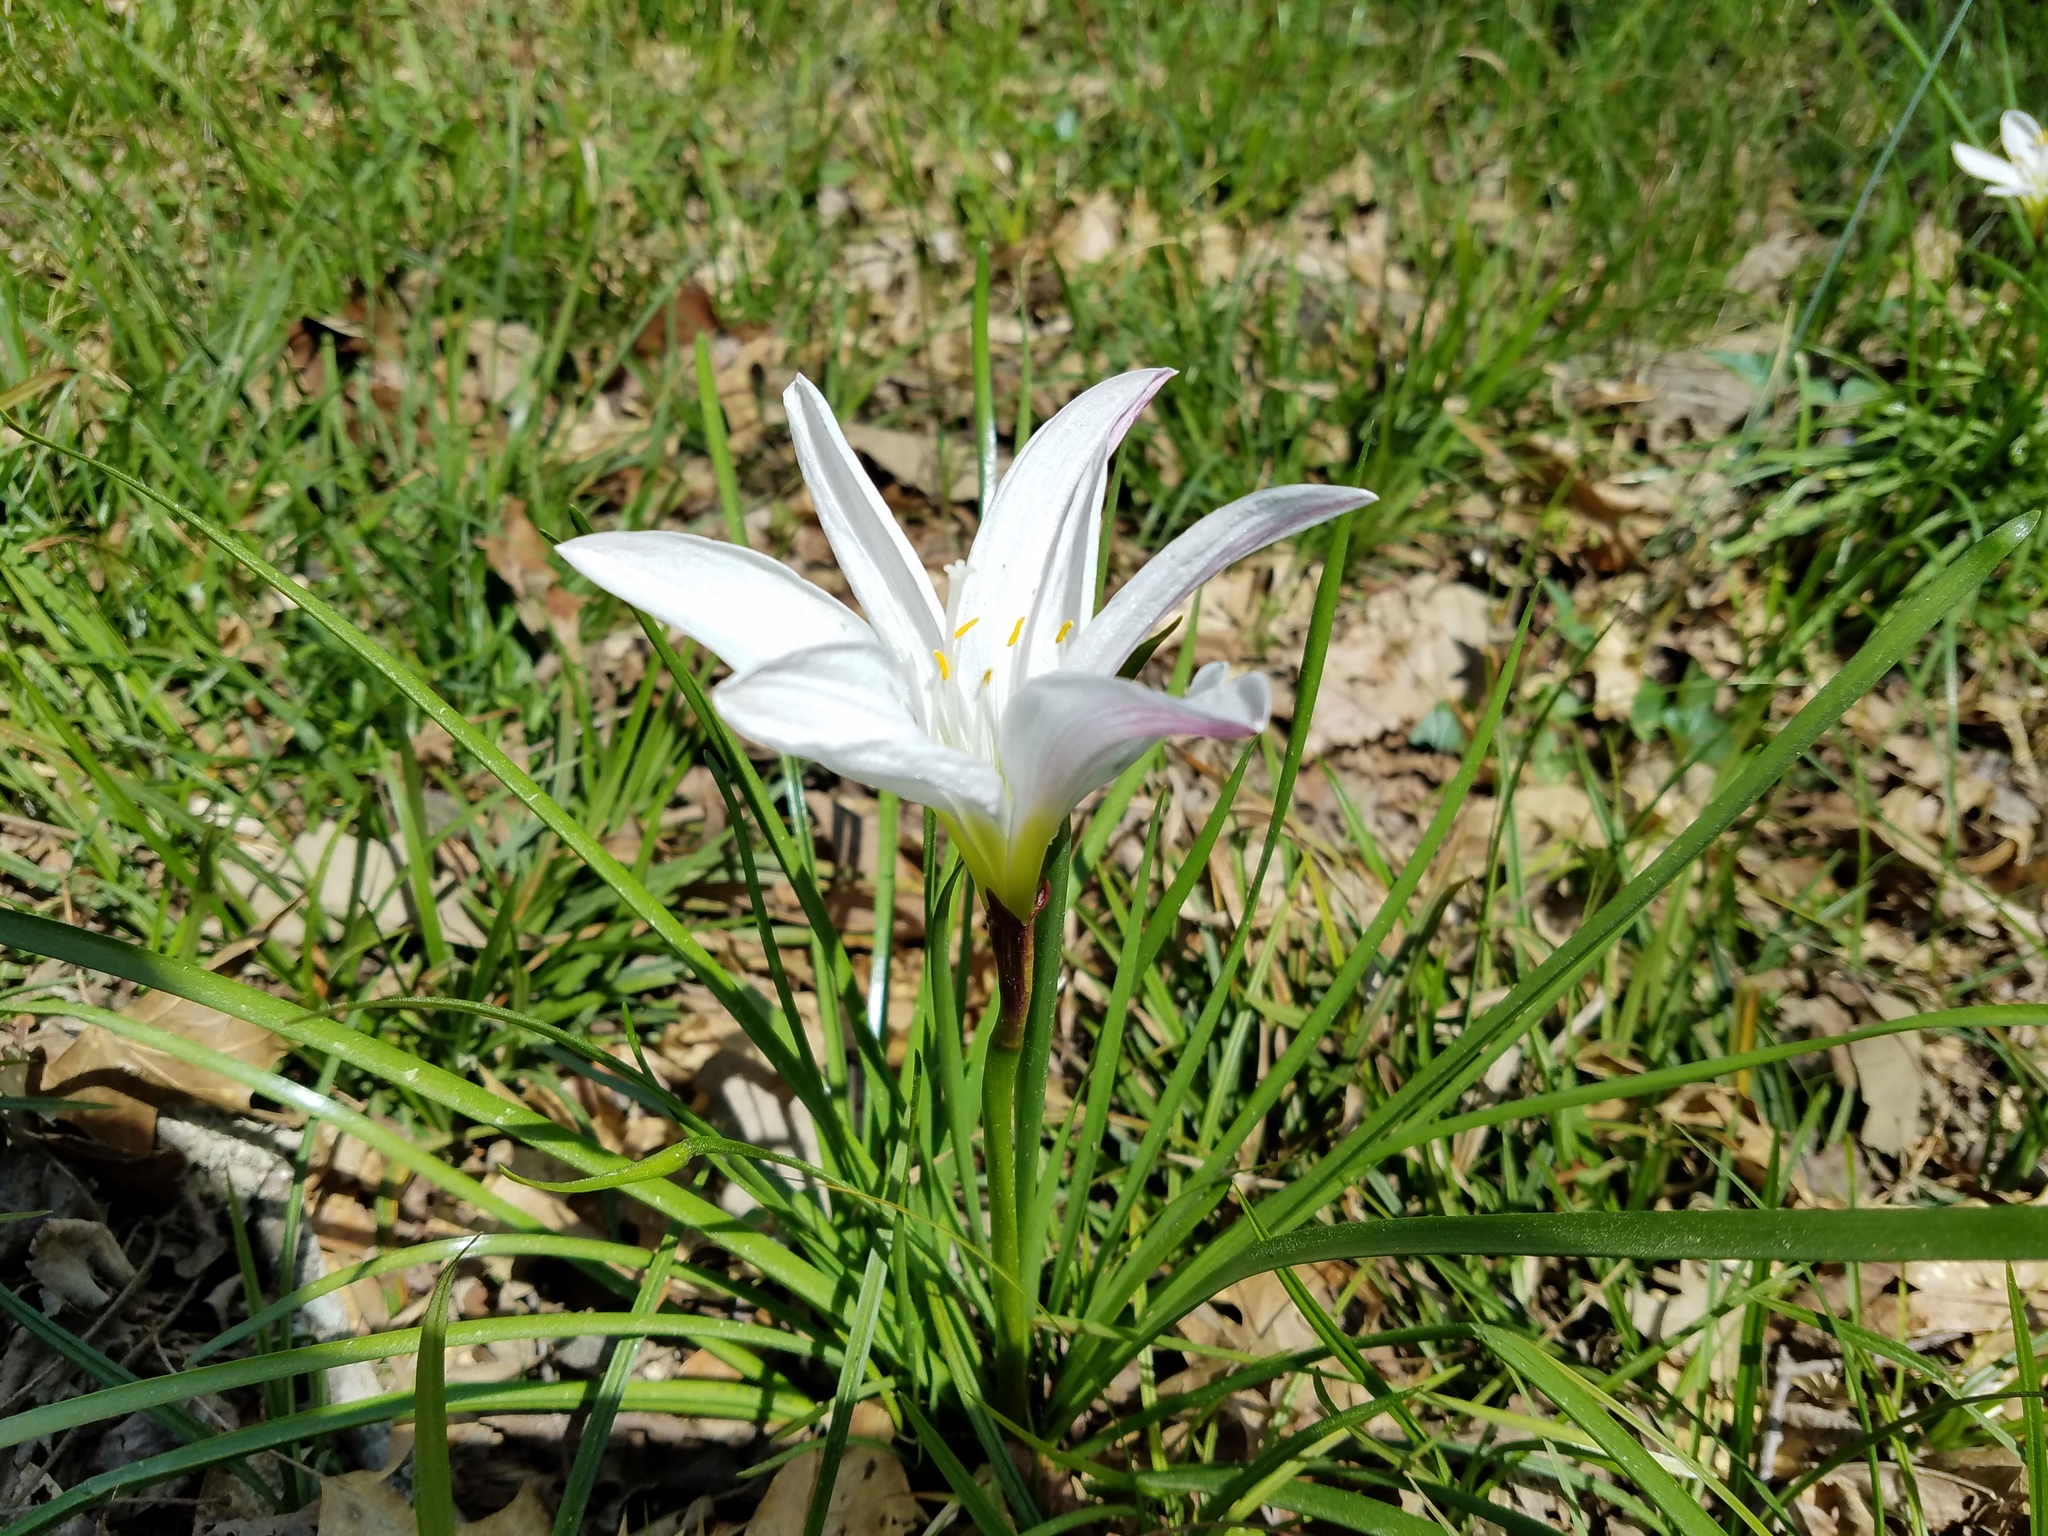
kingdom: Plantae
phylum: Tracheophyta
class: Liliopsida
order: Asparagales
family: Amaryllidaceae
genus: Zephyranthes
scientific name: Zephyranthes atamasco
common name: Atamasco lily
